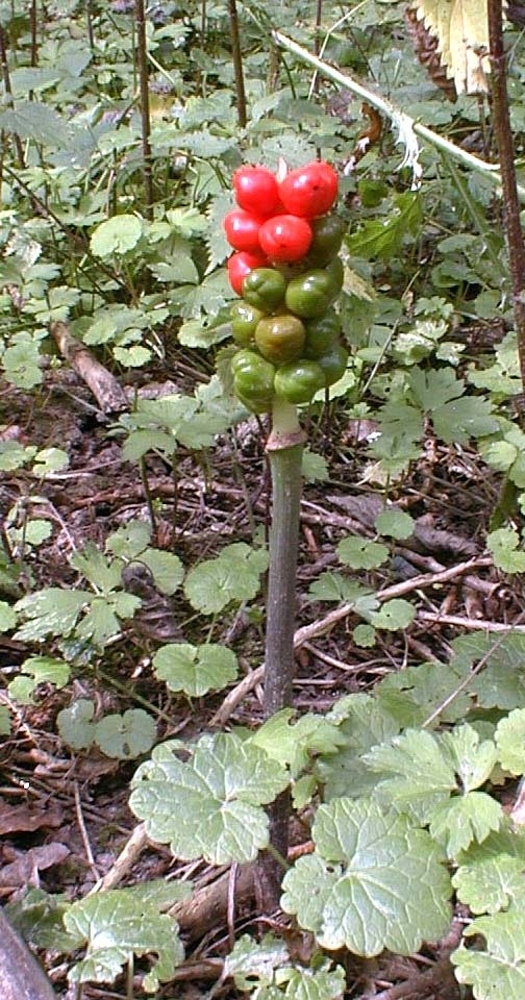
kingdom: Plantae
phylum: Tracheophyta
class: Liliopsida
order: Alismatales
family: Araceae
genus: Arum
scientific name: Arum maculatum
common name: Lords-and-ladies
